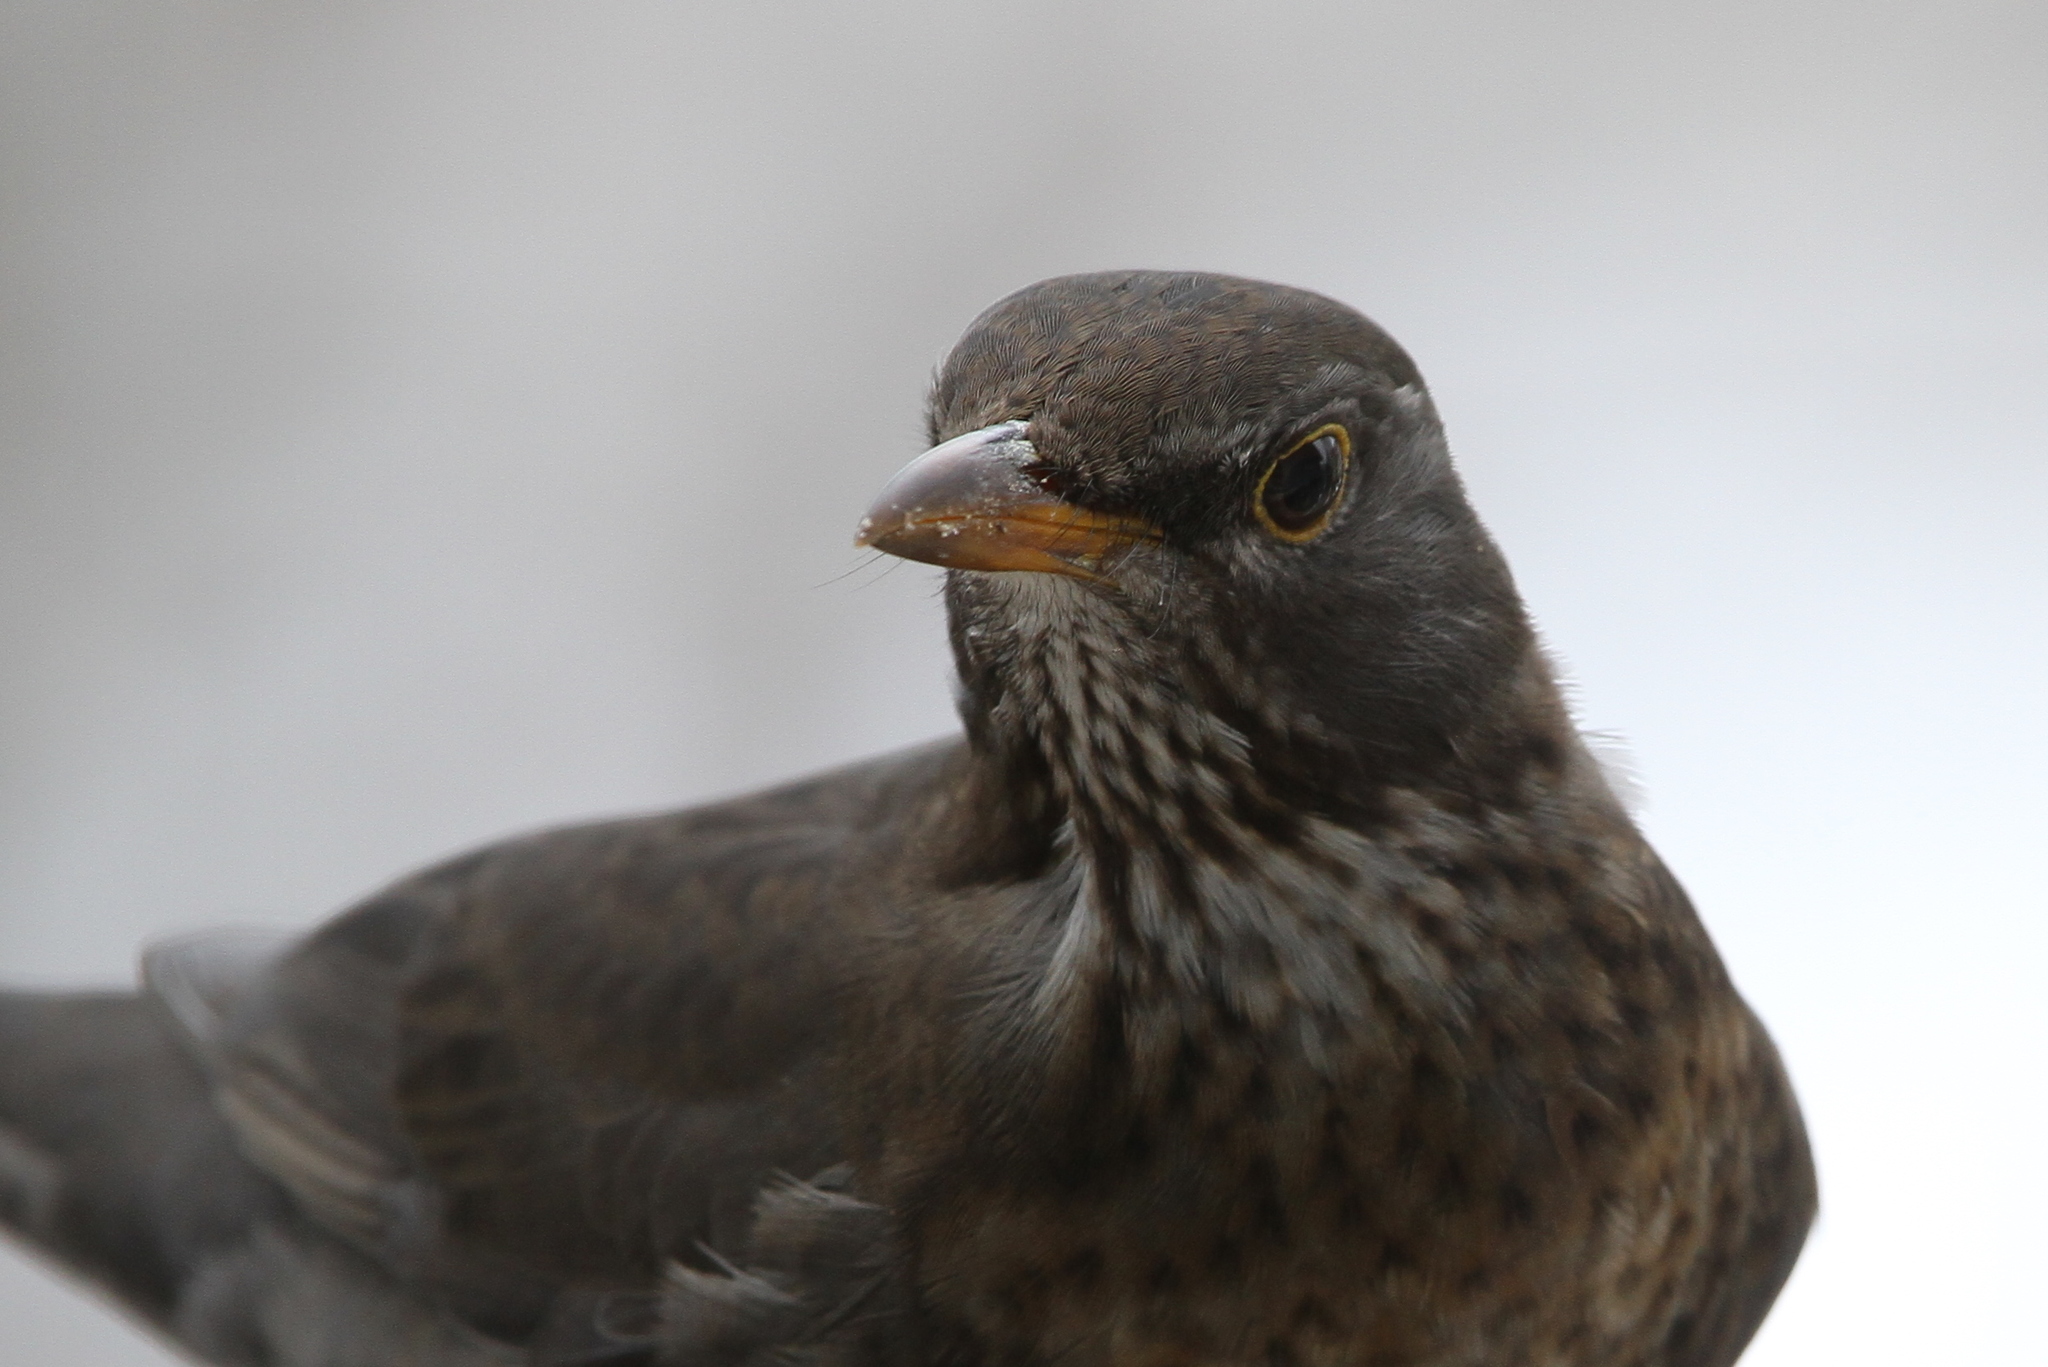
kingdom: Animalia
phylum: Chordata
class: Aves
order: Passeriformes
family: Turdidae
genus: Turdus
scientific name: Turdus merula
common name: Common blackbird
